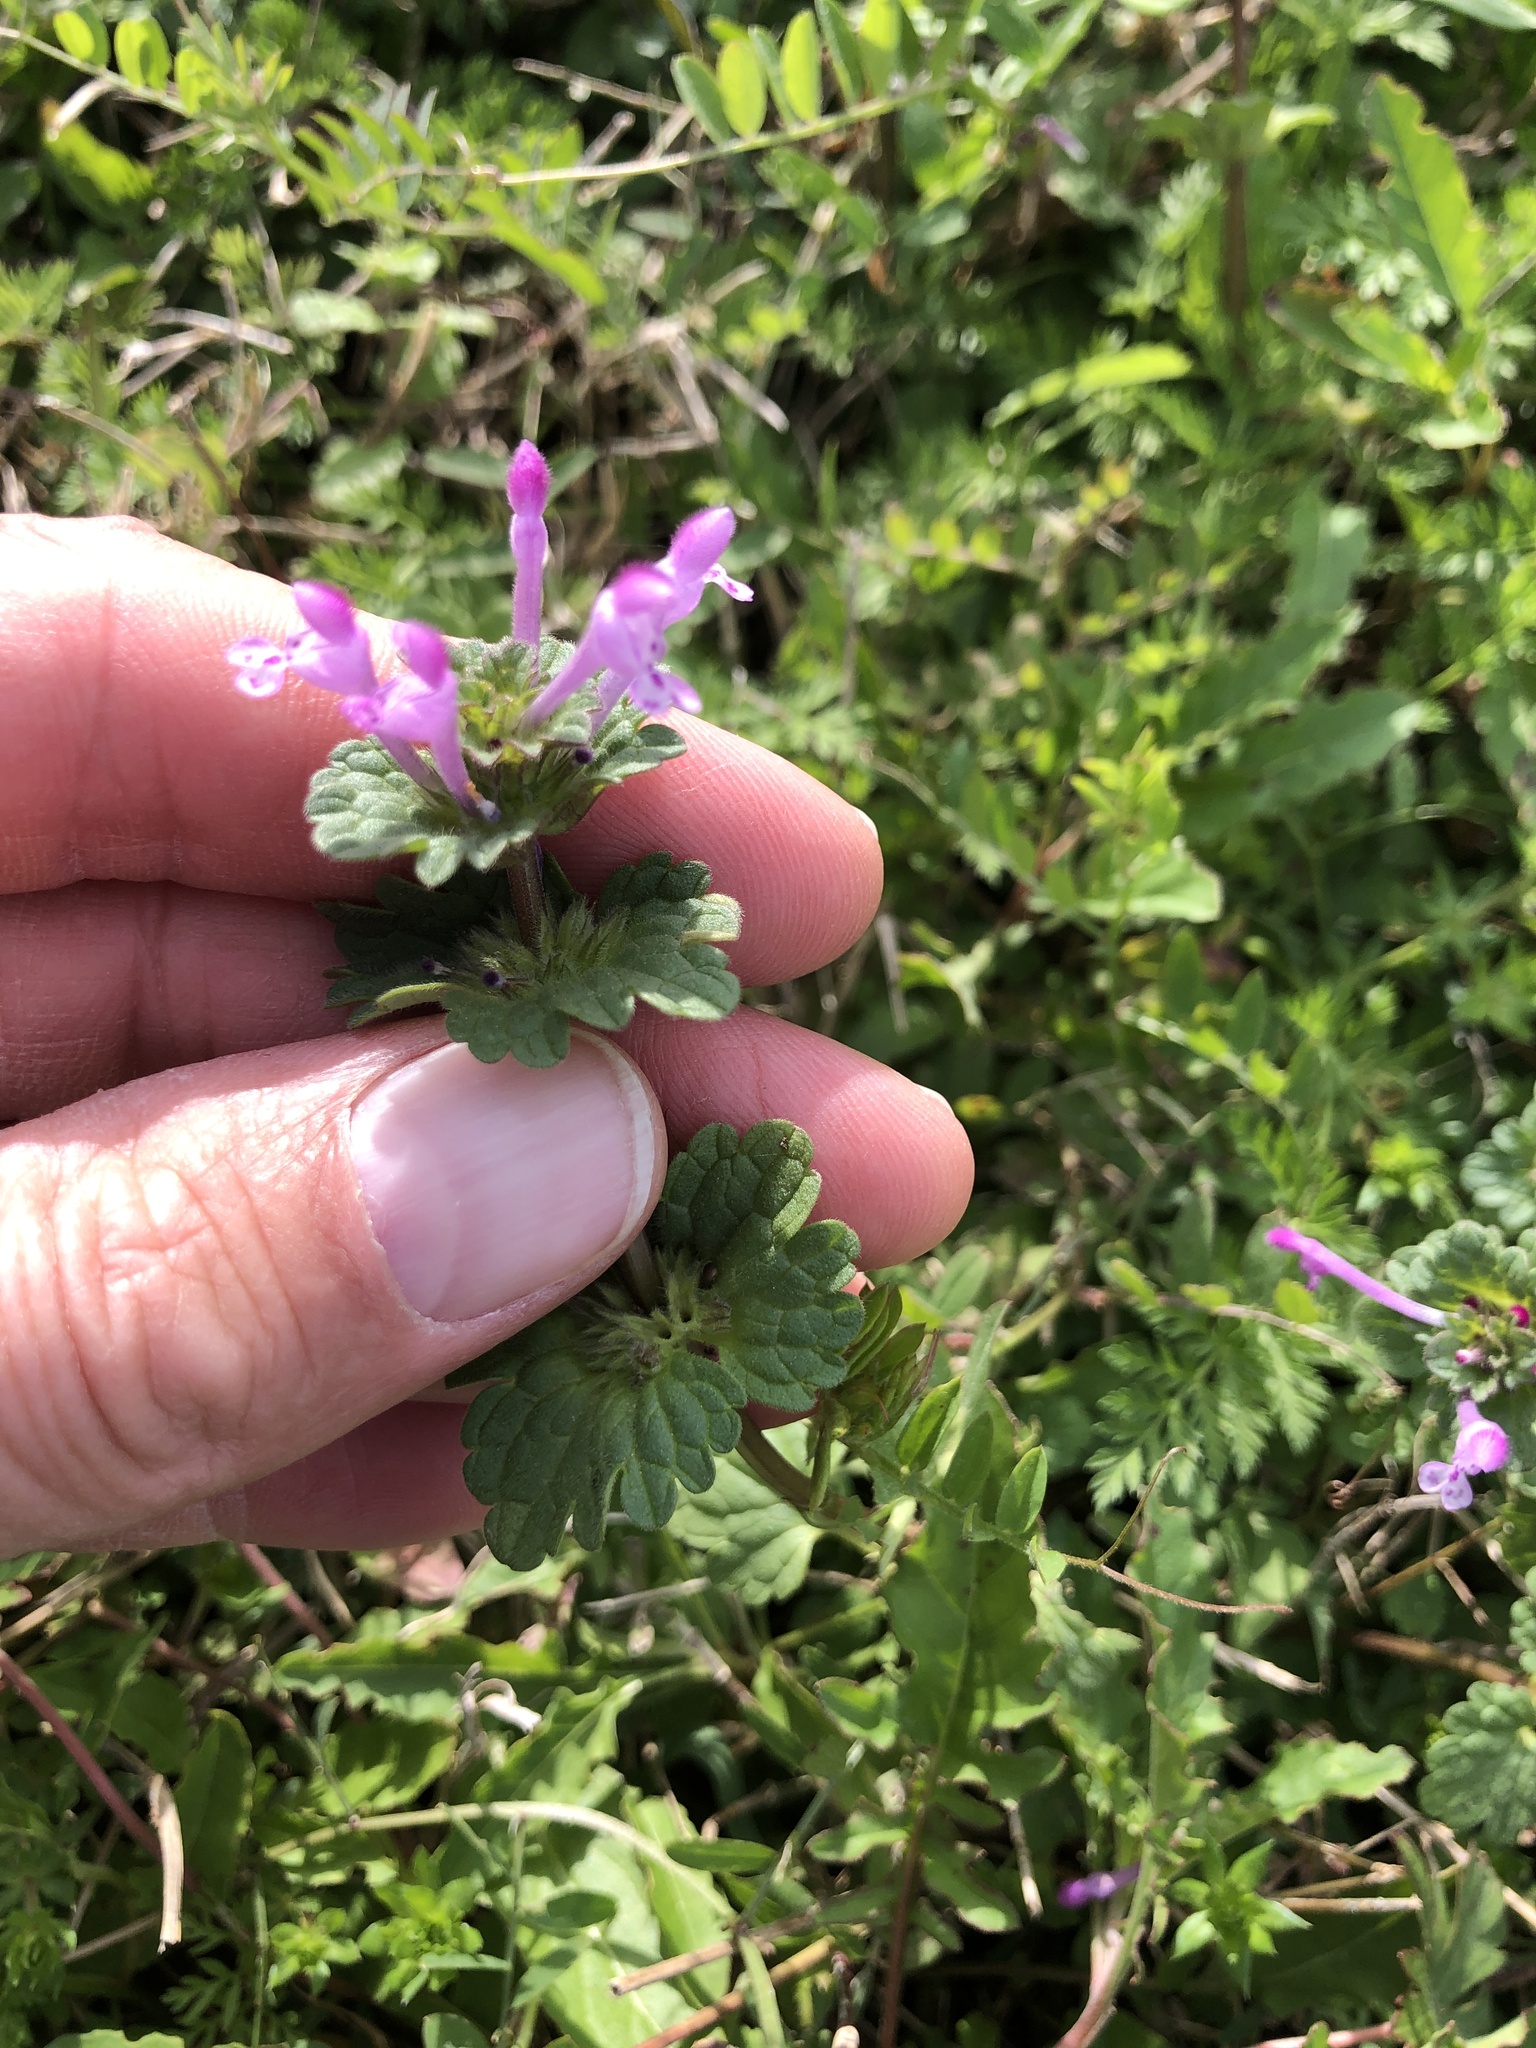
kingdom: Plantae
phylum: Tracheophyta
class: Magnoliopsida
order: Lamiales
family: Lamiaceae
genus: Lamium
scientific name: Lamium amplexicaule
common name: Henbit dead-nettle
